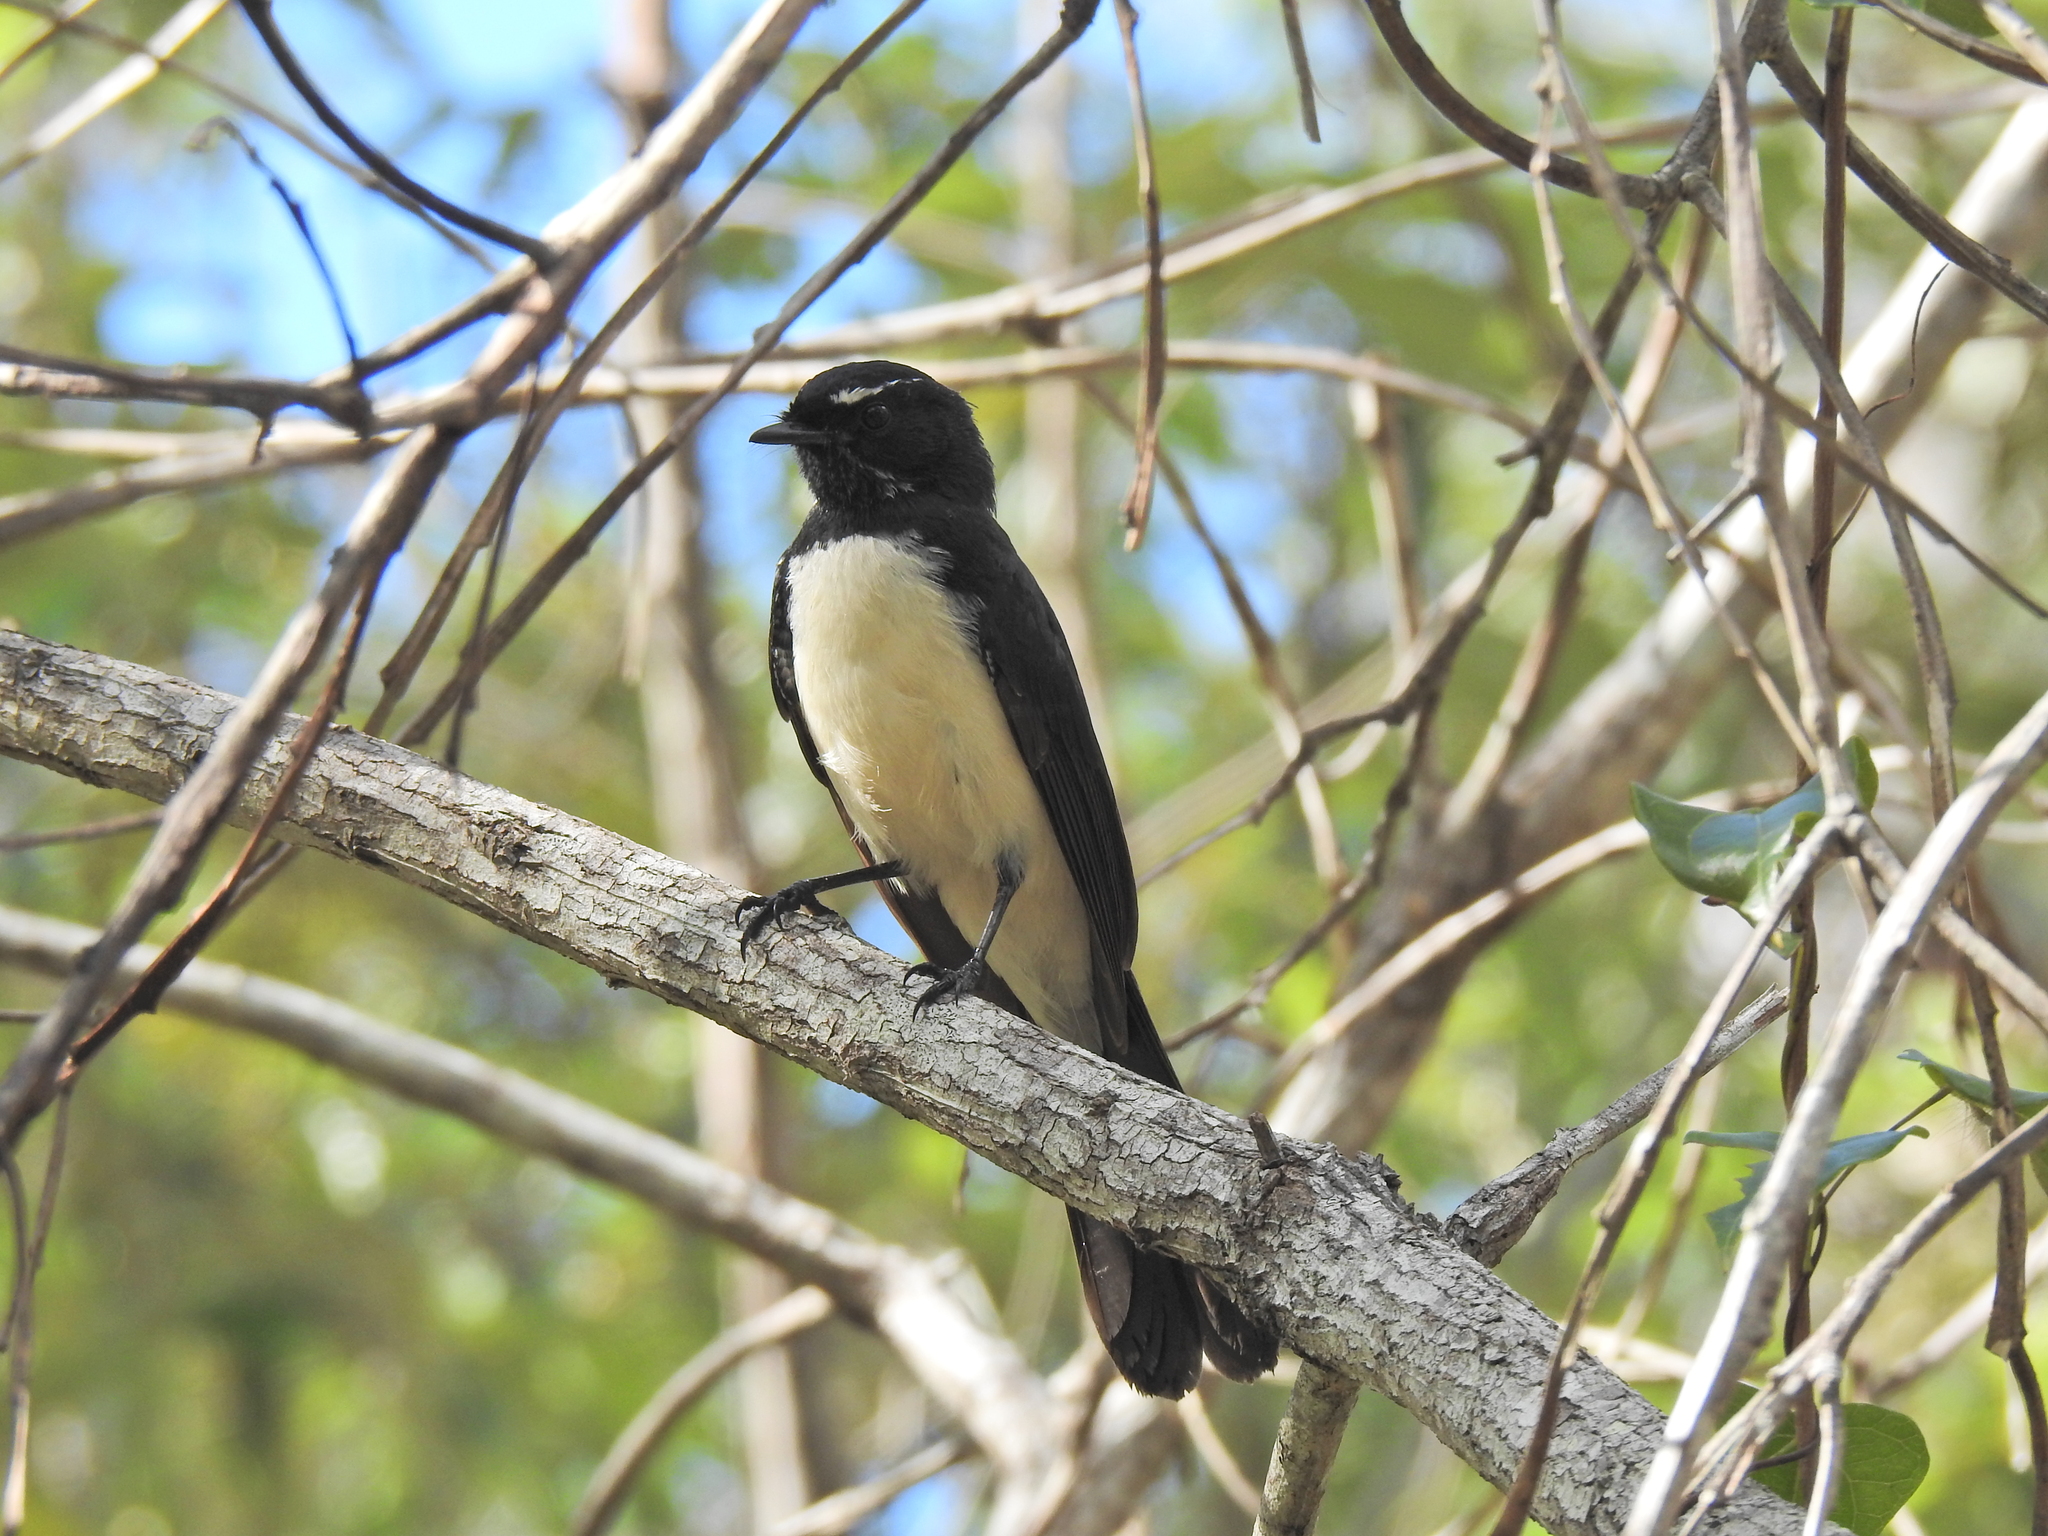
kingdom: Animalia
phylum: Chordata
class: Aves
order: Passeriformes
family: Rhipiduridae
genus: Rhipidura
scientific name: Rhipidura leucophrys
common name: Willie wagtail
